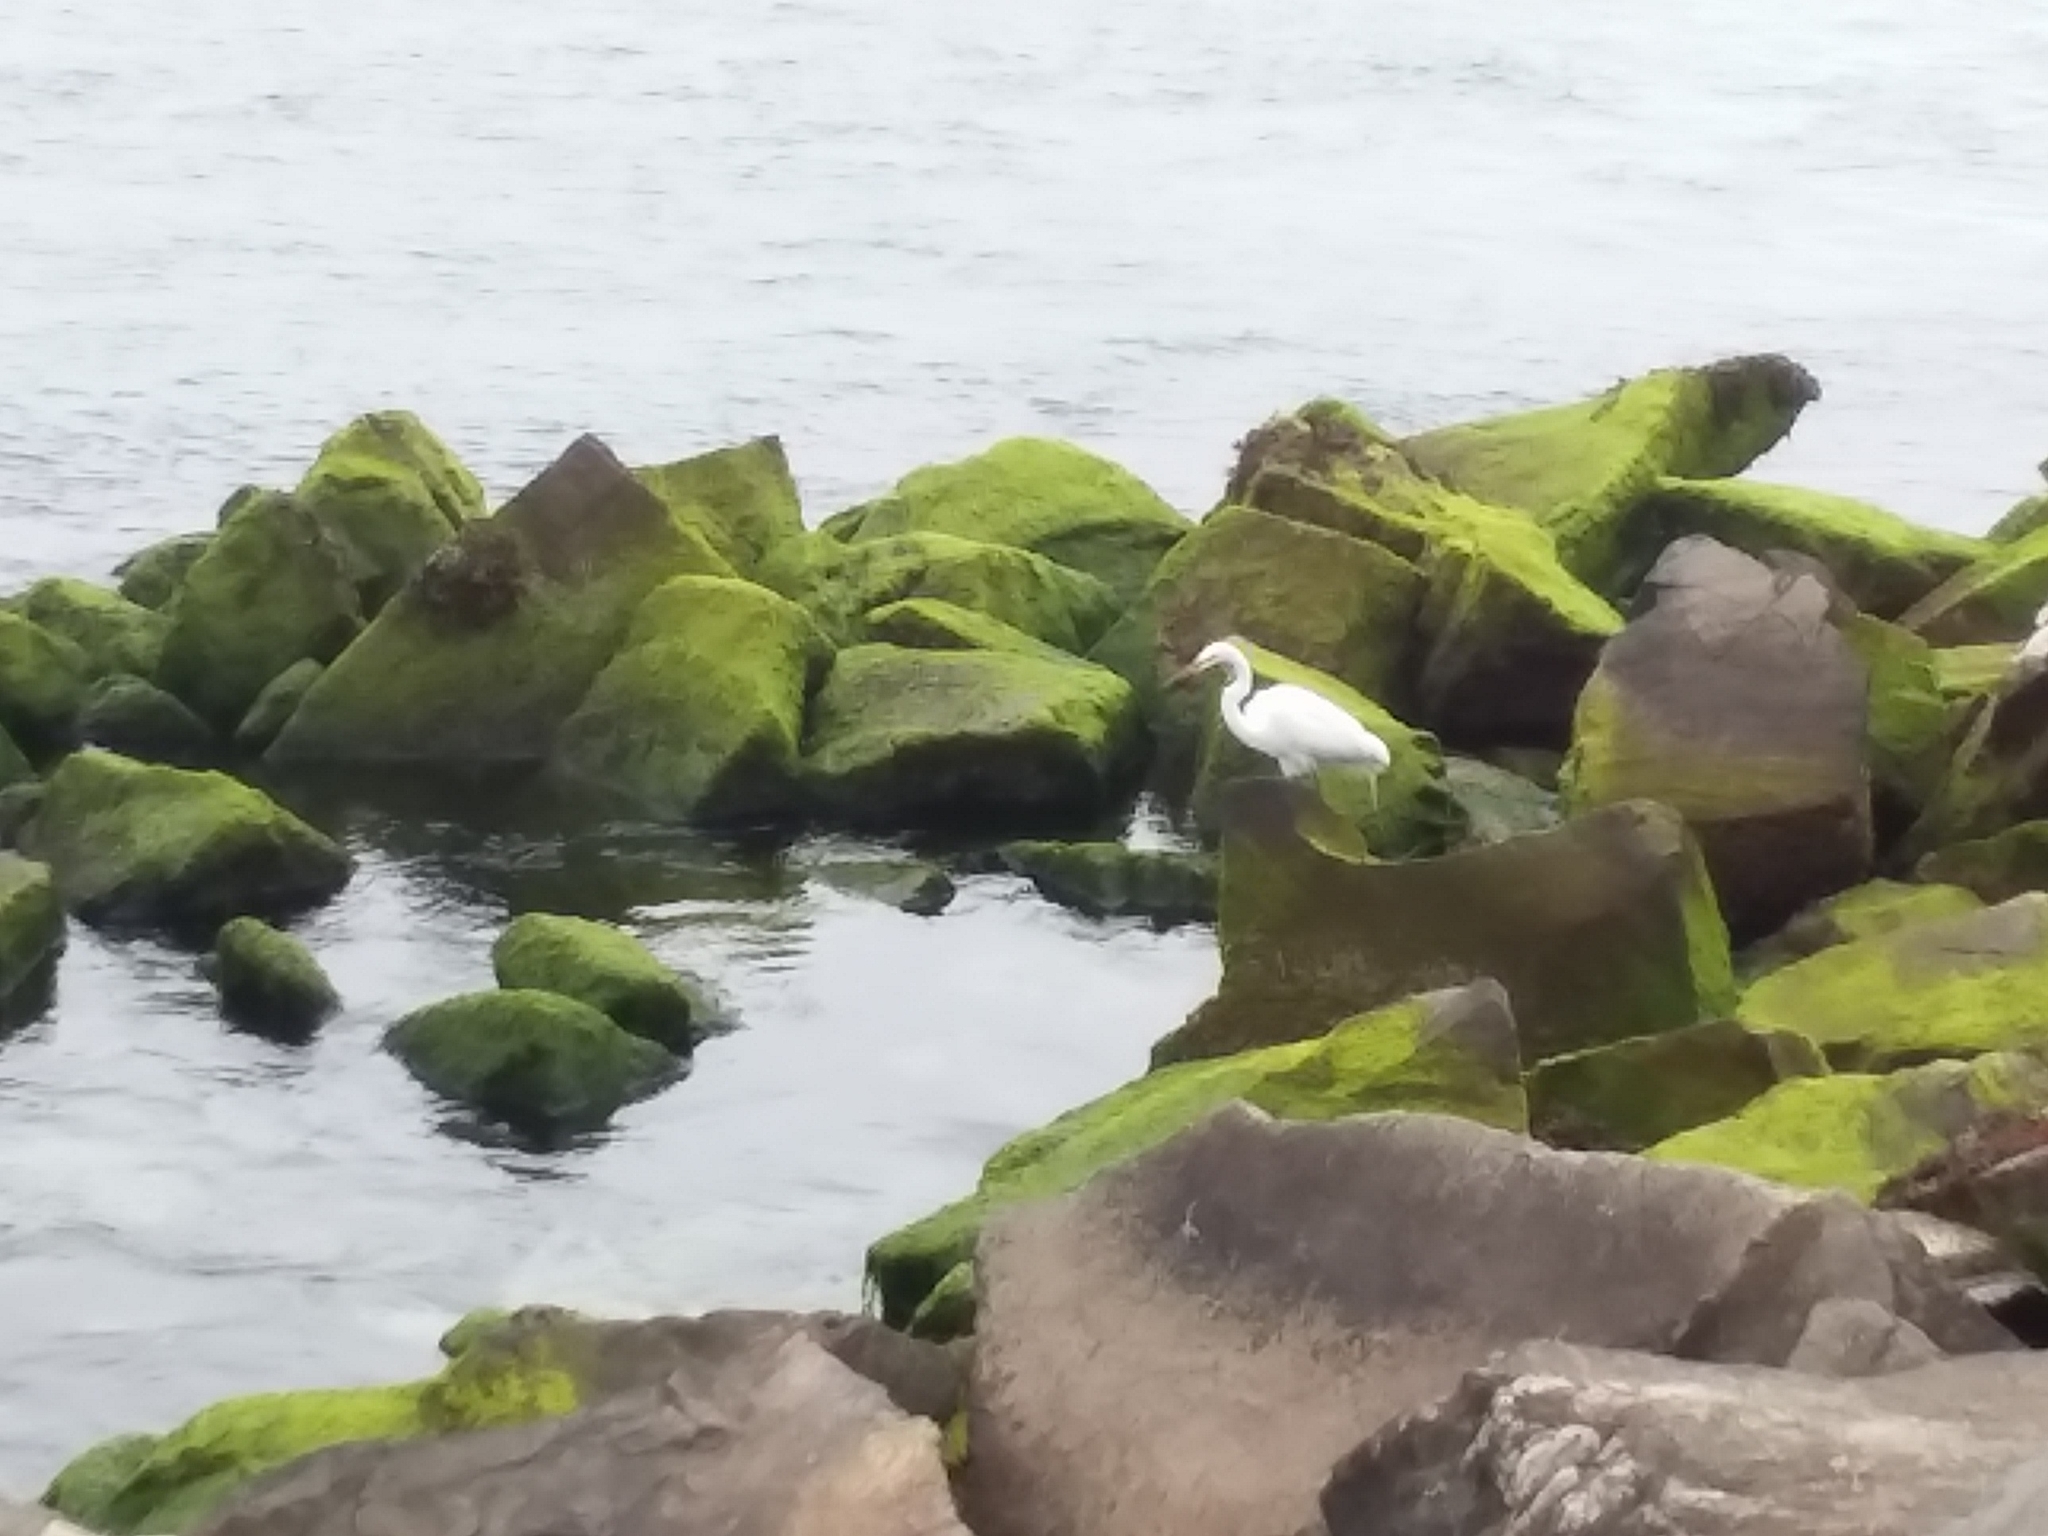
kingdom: Animalia
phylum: Chordata
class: Aves
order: Pelecaniformes
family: Ardeidae
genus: Ardea
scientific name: Ardea alba
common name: Great egret
